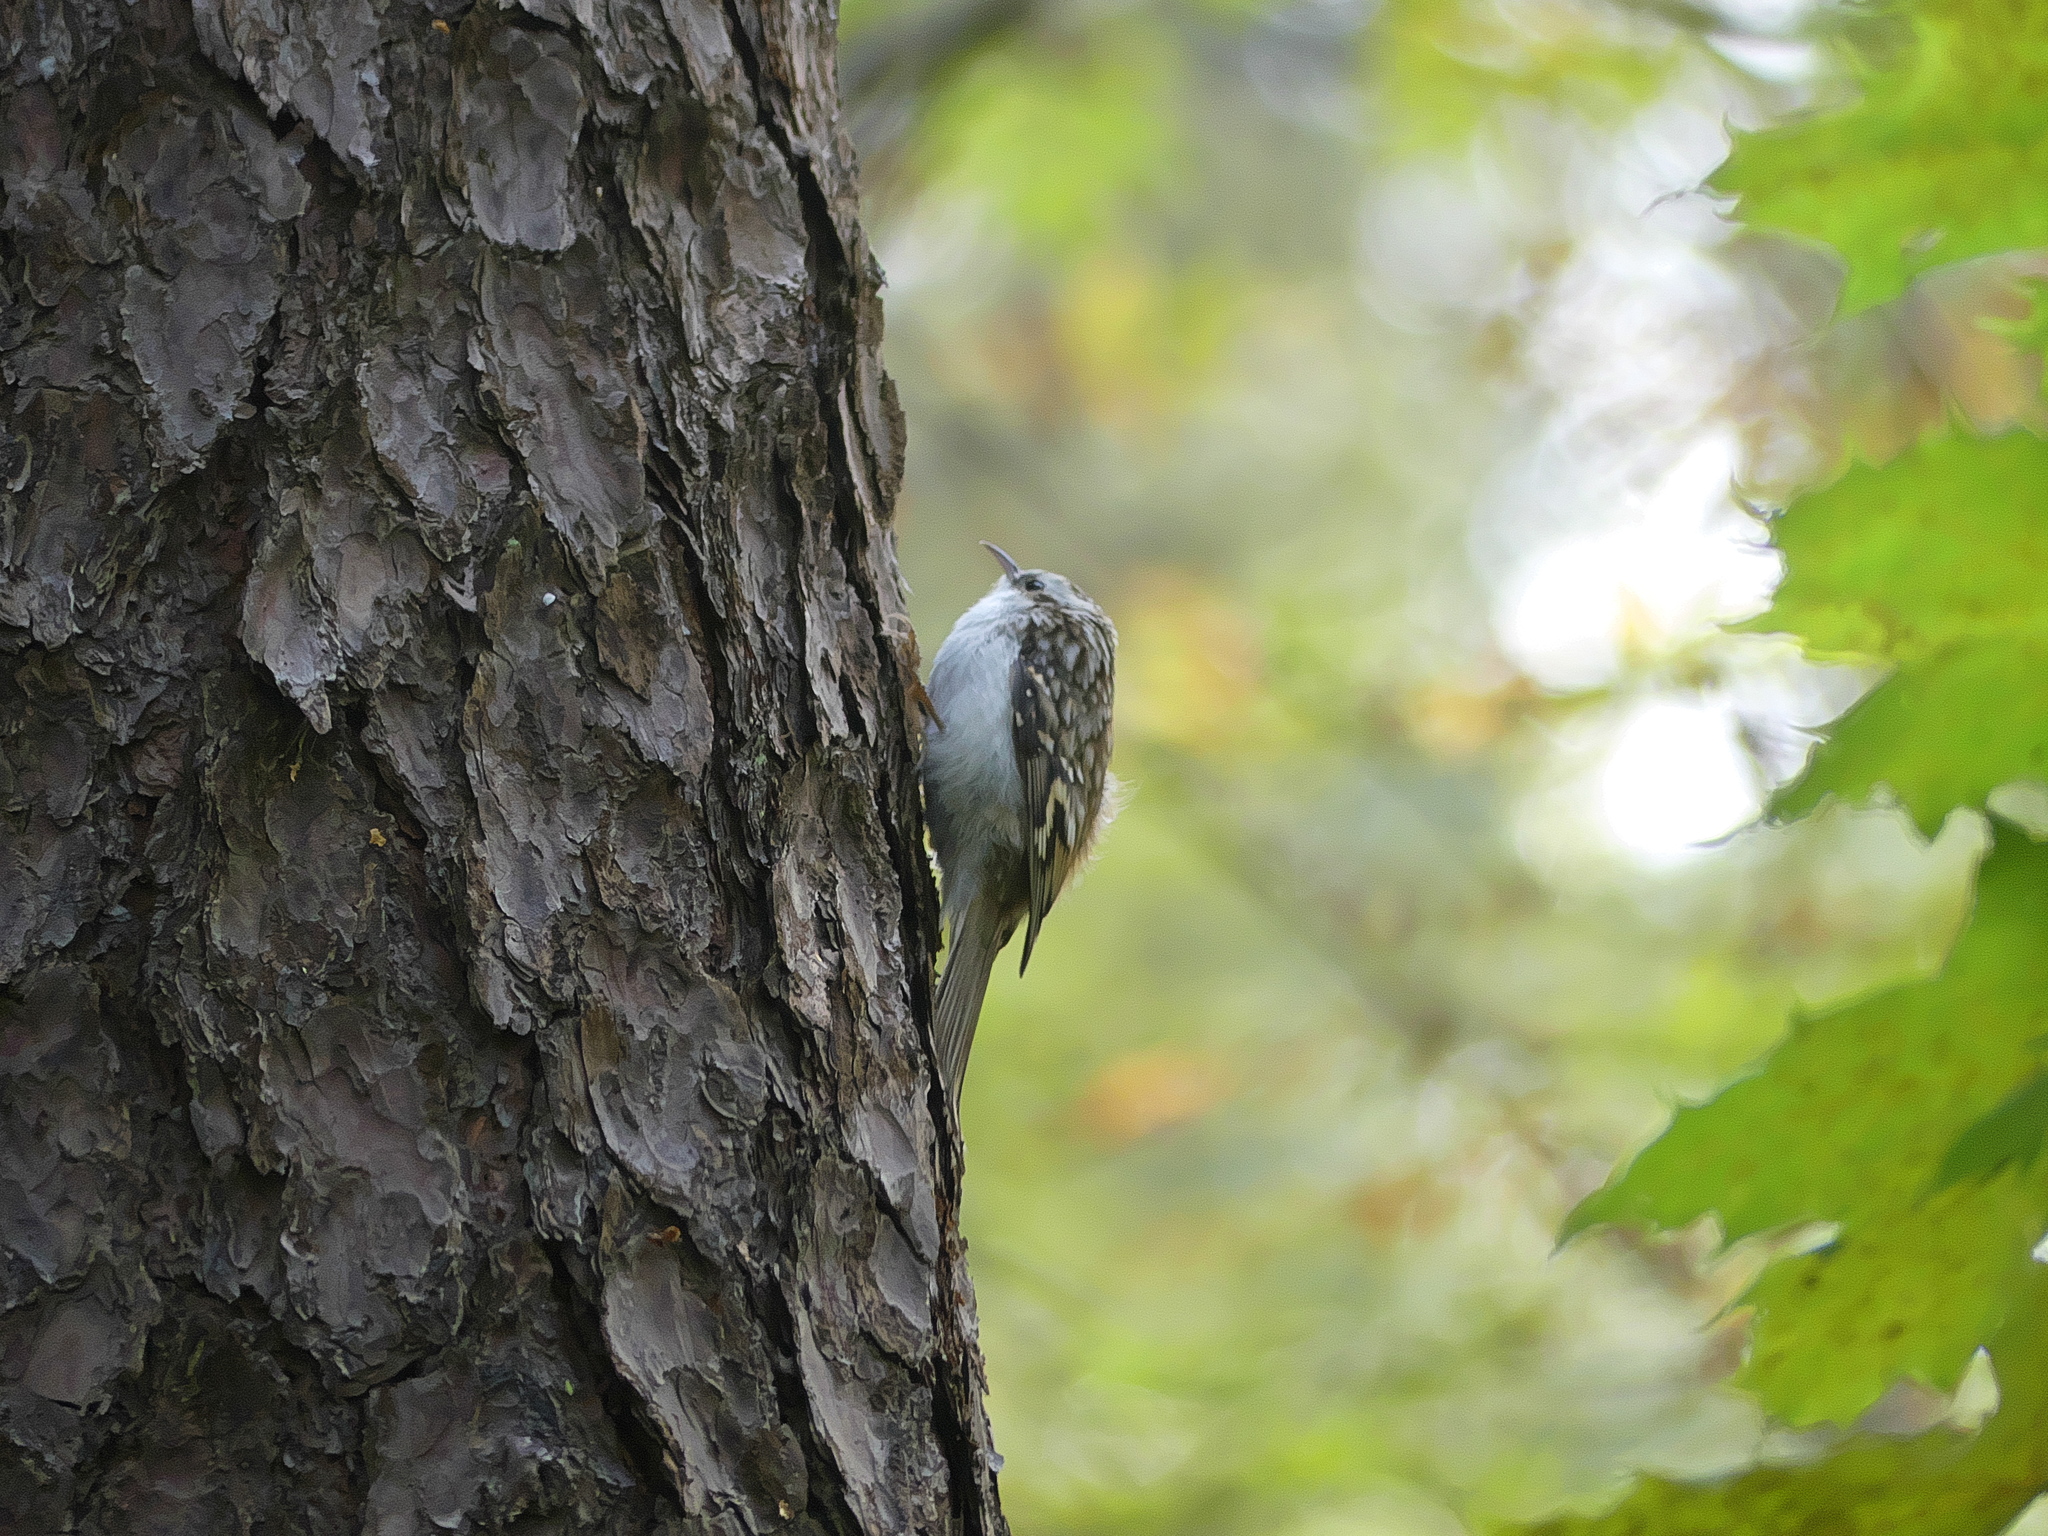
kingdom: Animalia
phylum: Chordata
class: Aves
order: Passeriformes
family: Certhiidae
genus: Certhia
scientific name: Certhia familiaris
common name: Eurasian treecreeper
